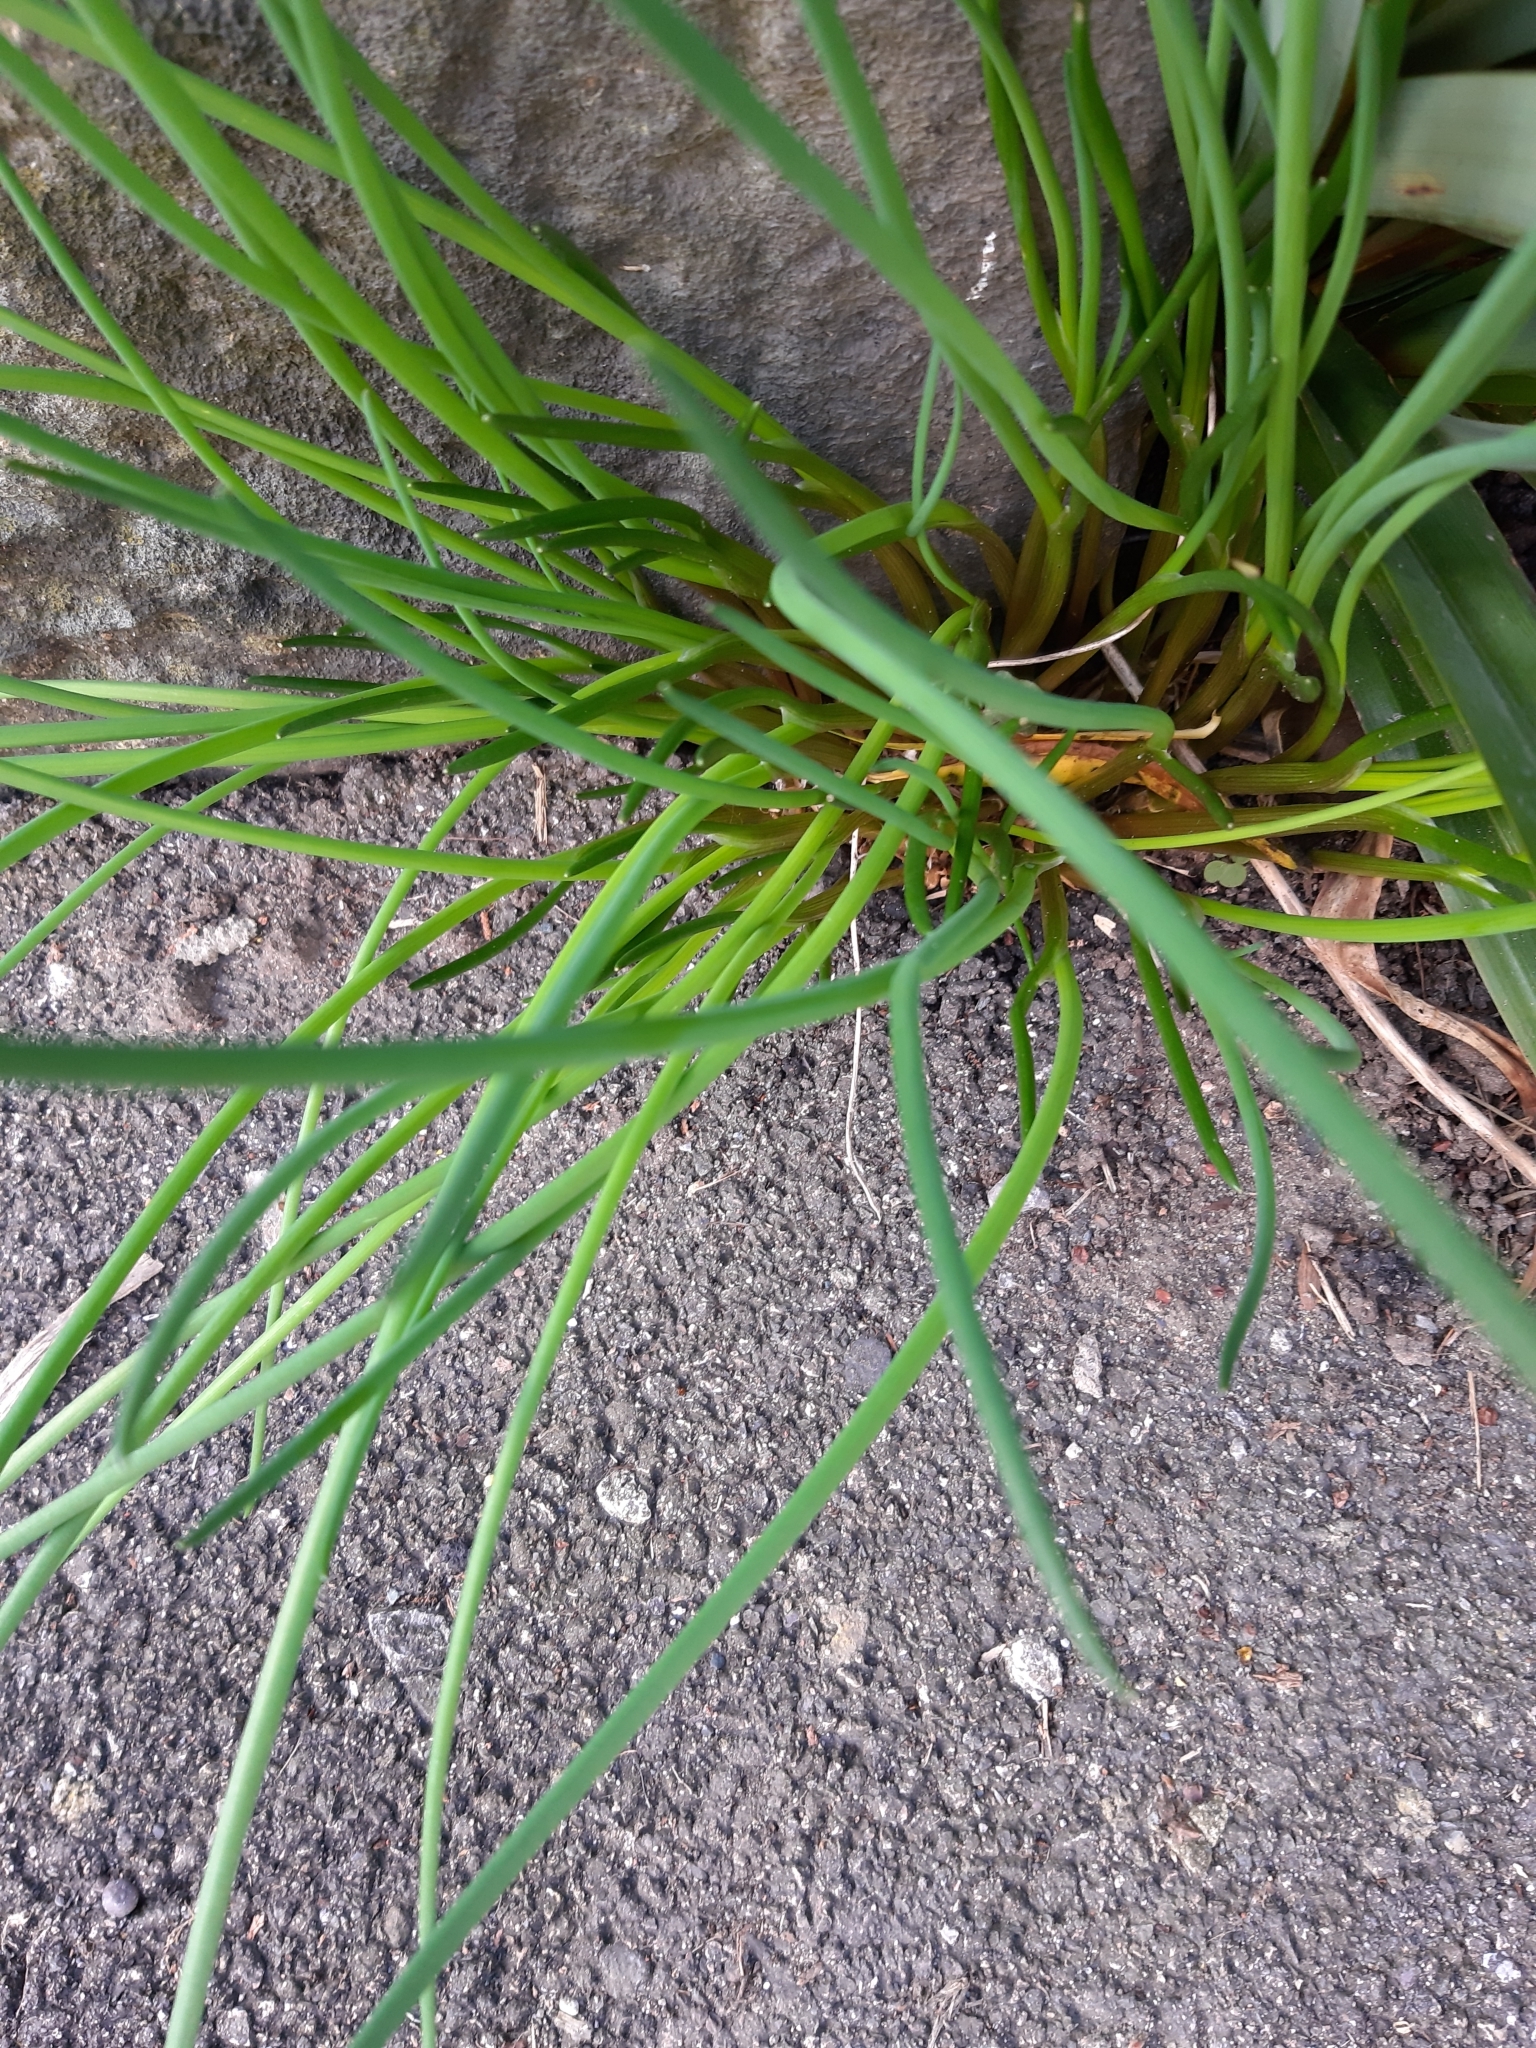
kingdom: Plantae
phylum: Tracheophyta
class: Liliopsida
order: Asparagales
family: Amaryllidaceae
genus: Allium
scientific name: Allium schoenoprasum
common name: Chives
